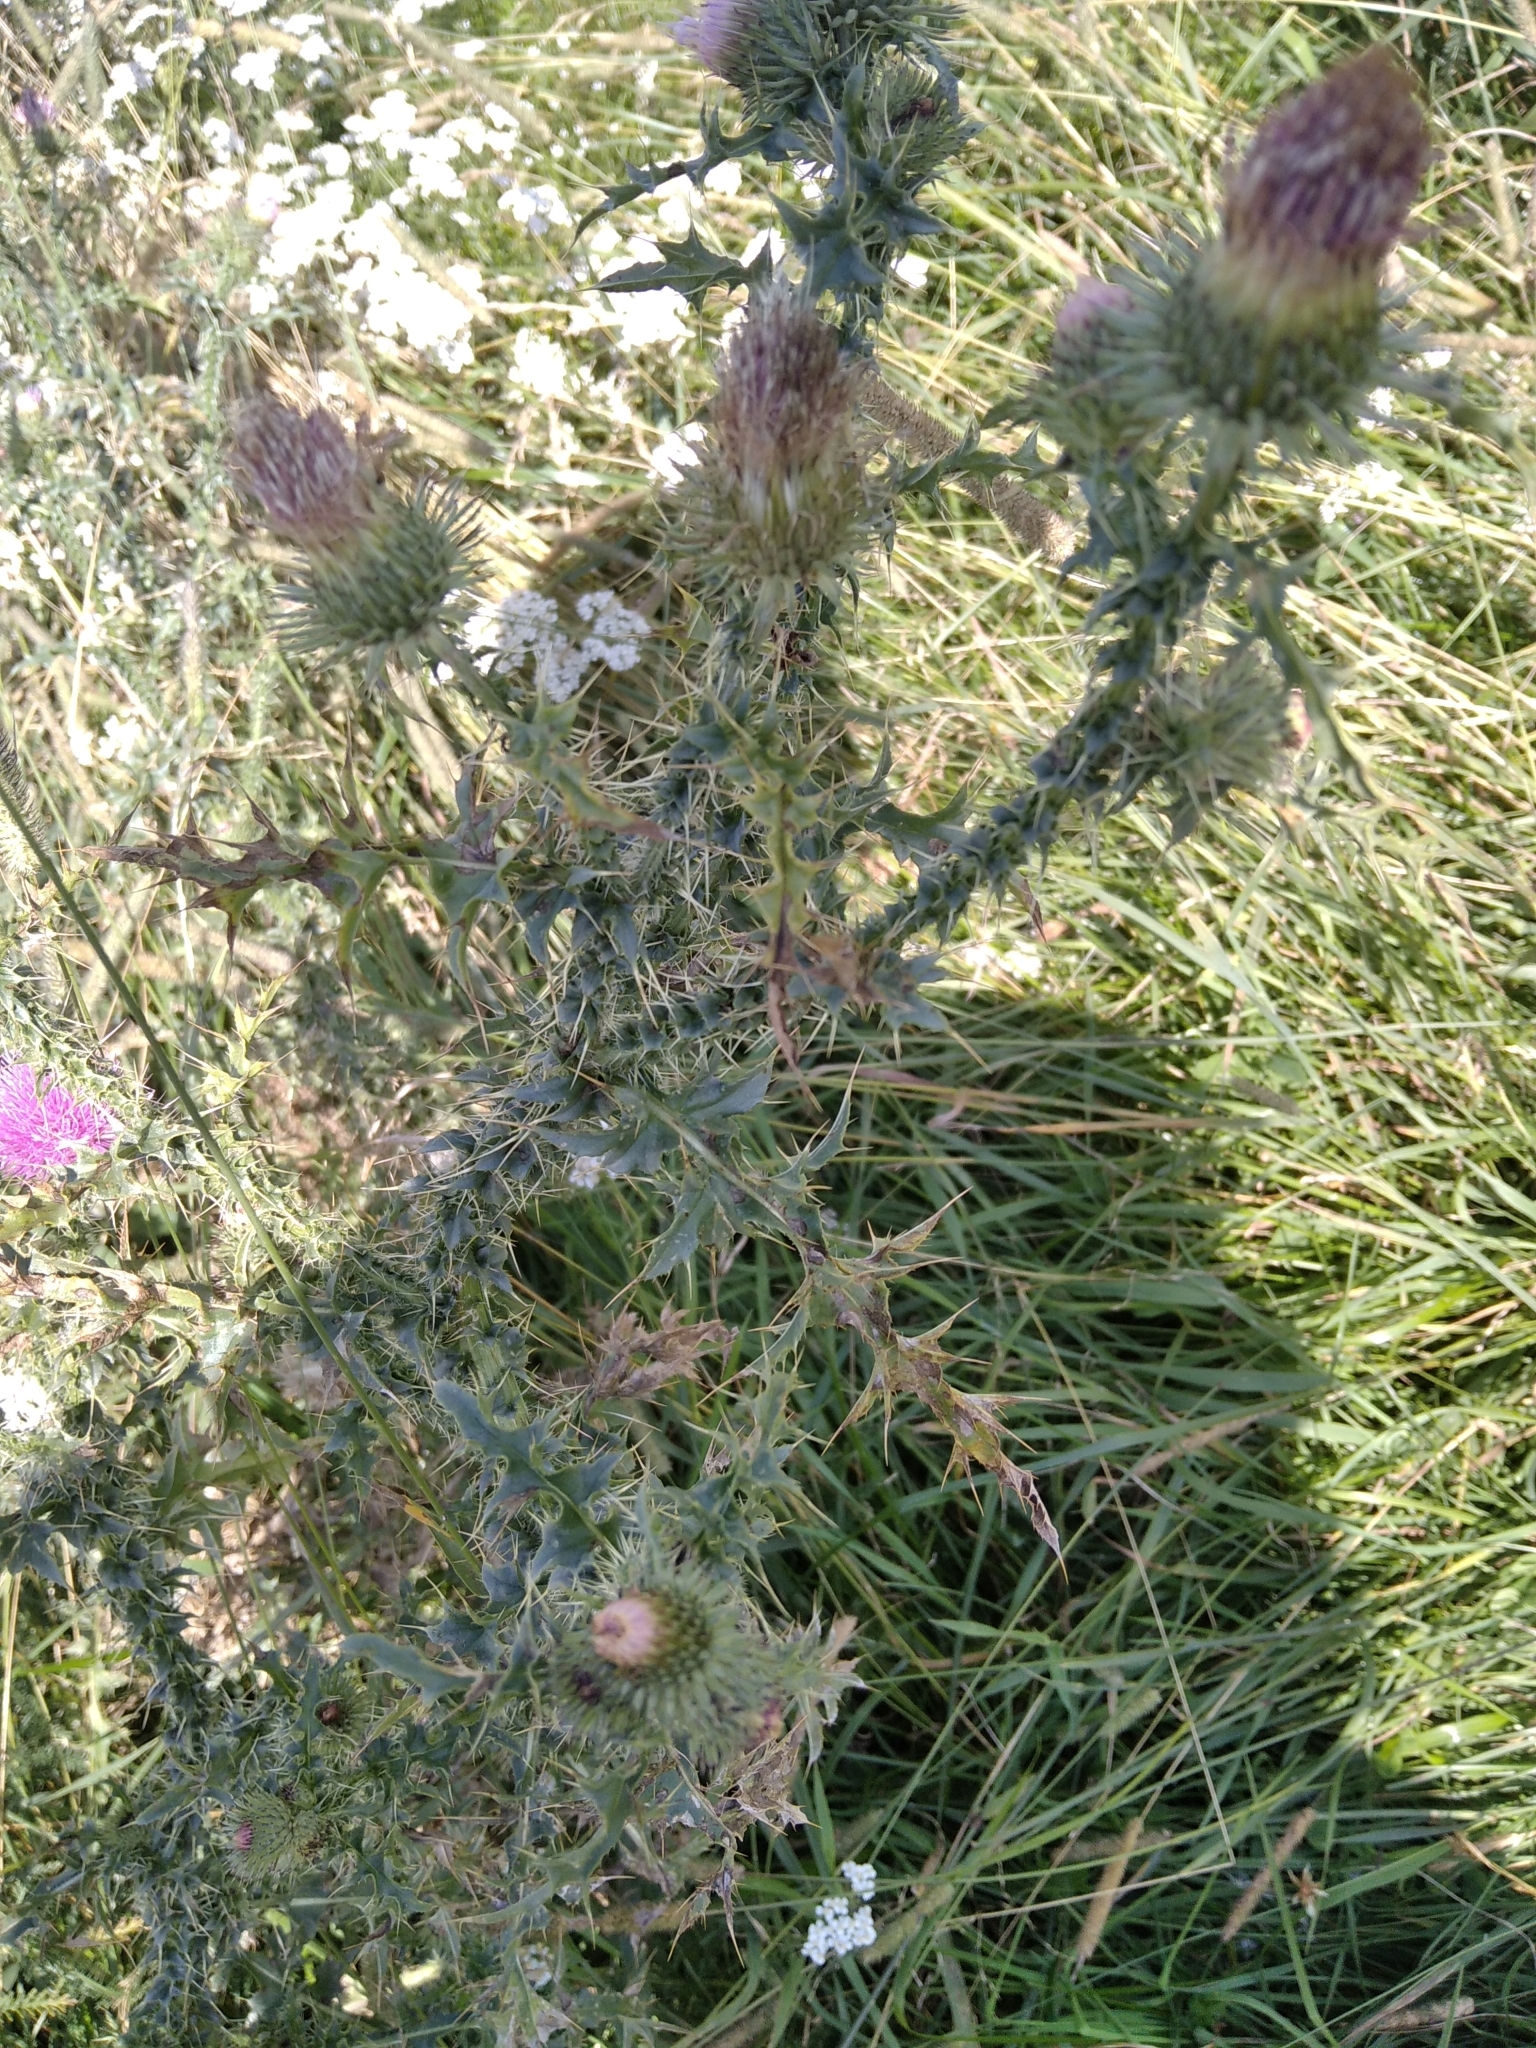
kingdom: Plantae
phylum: Tracheophyta
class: Magnoliopsida
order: Asterales
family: Asteraceae
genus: Carduus
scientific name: Carduus acanthoides
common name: Plumeless thistle
